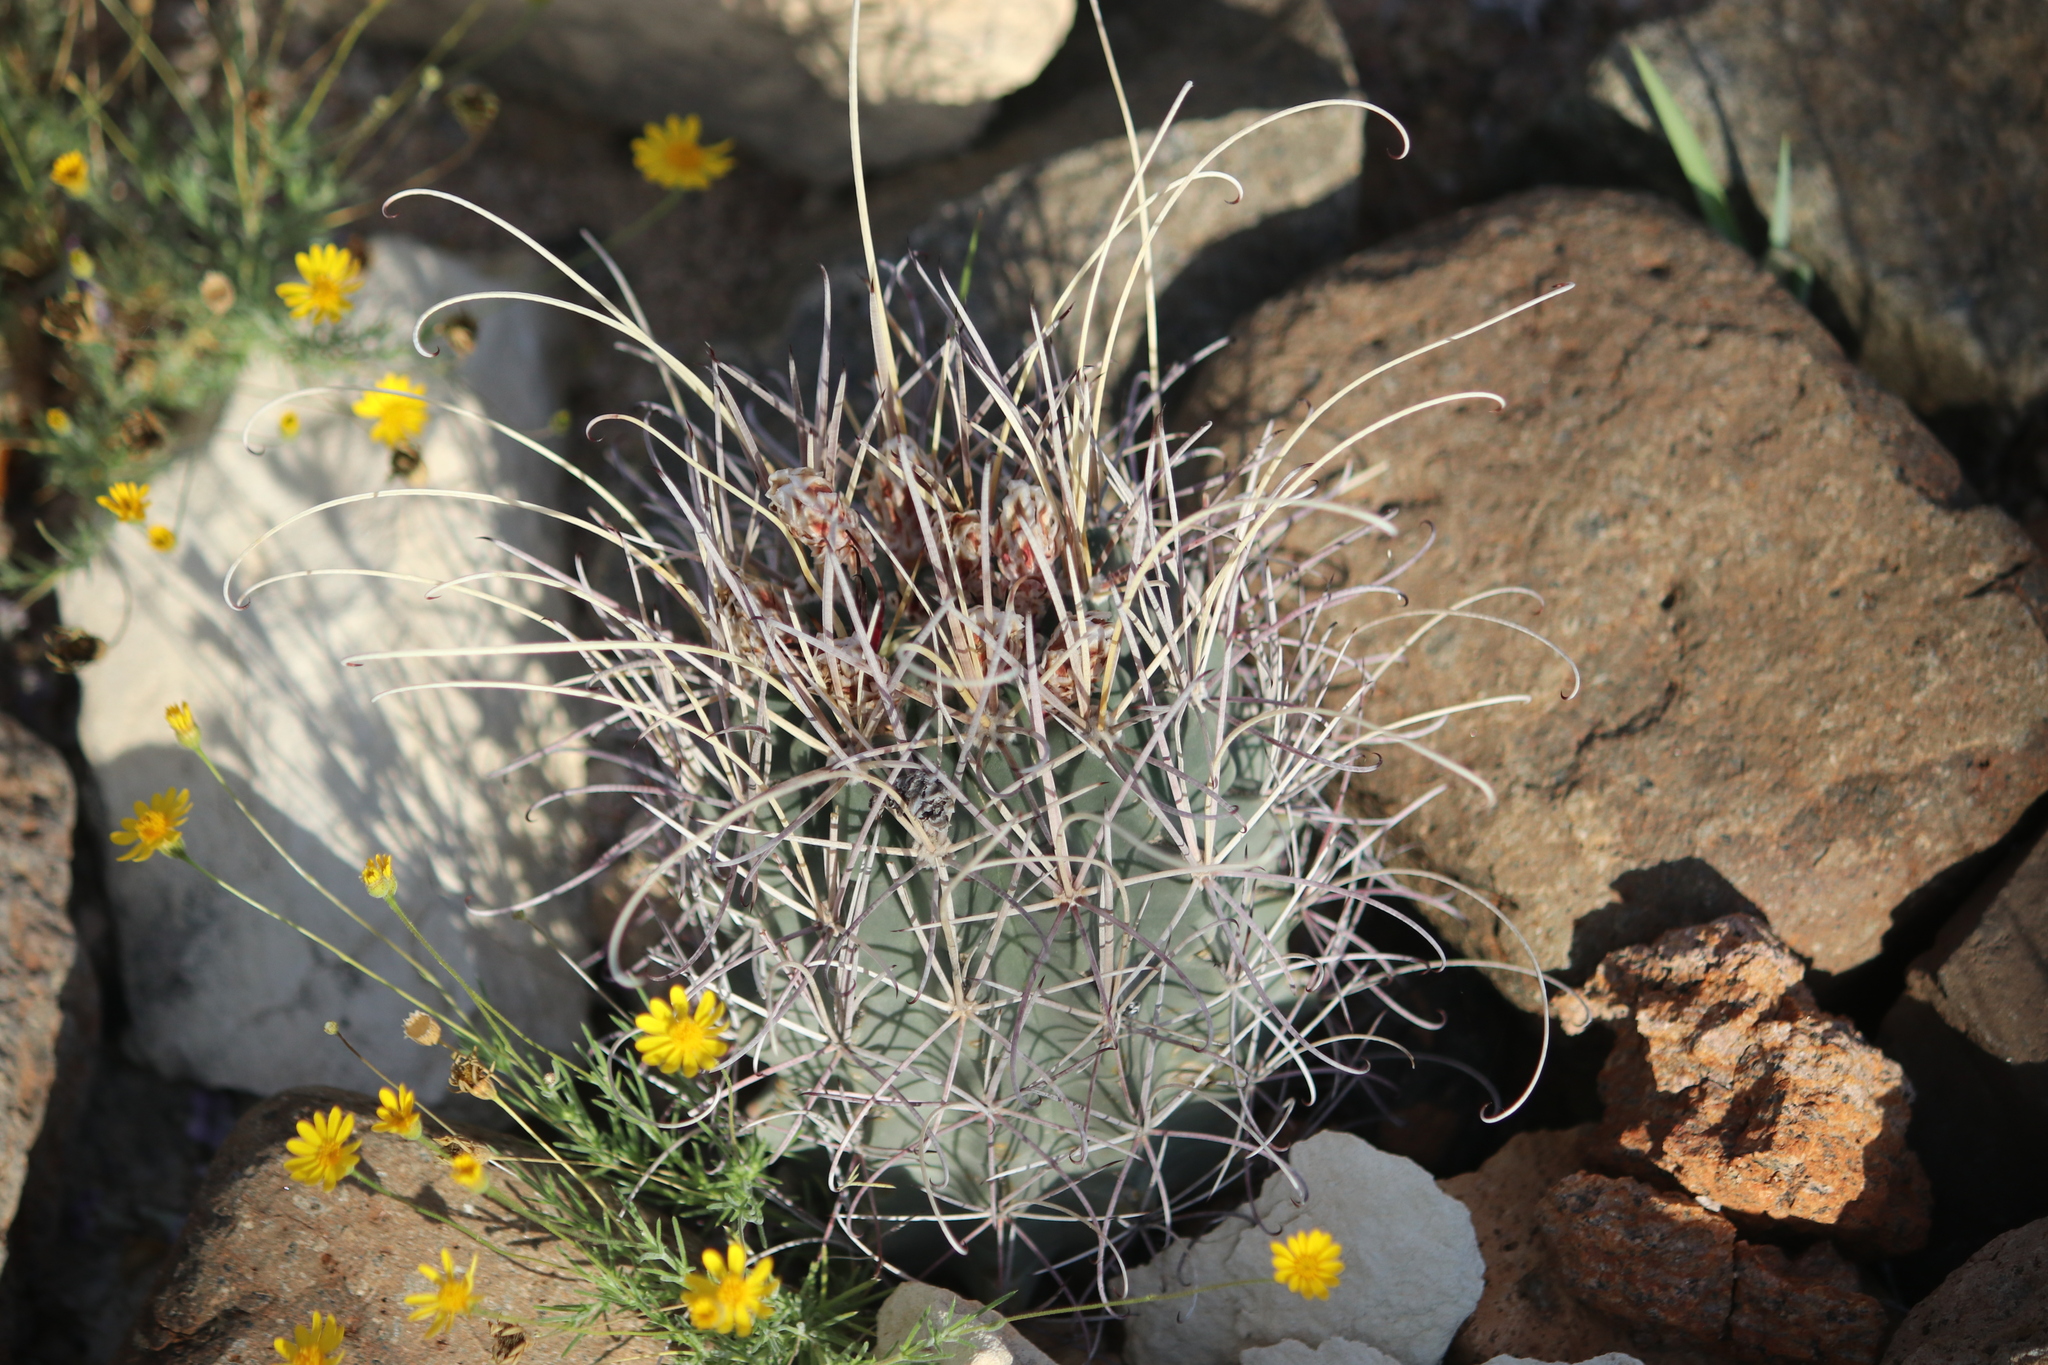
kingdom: Plantae
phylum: Tracheophyta
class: Magnoliopsida
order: Caryophyllales
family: Cactaceae
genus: Ferocactus
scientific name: Ferocactus uncinatus
